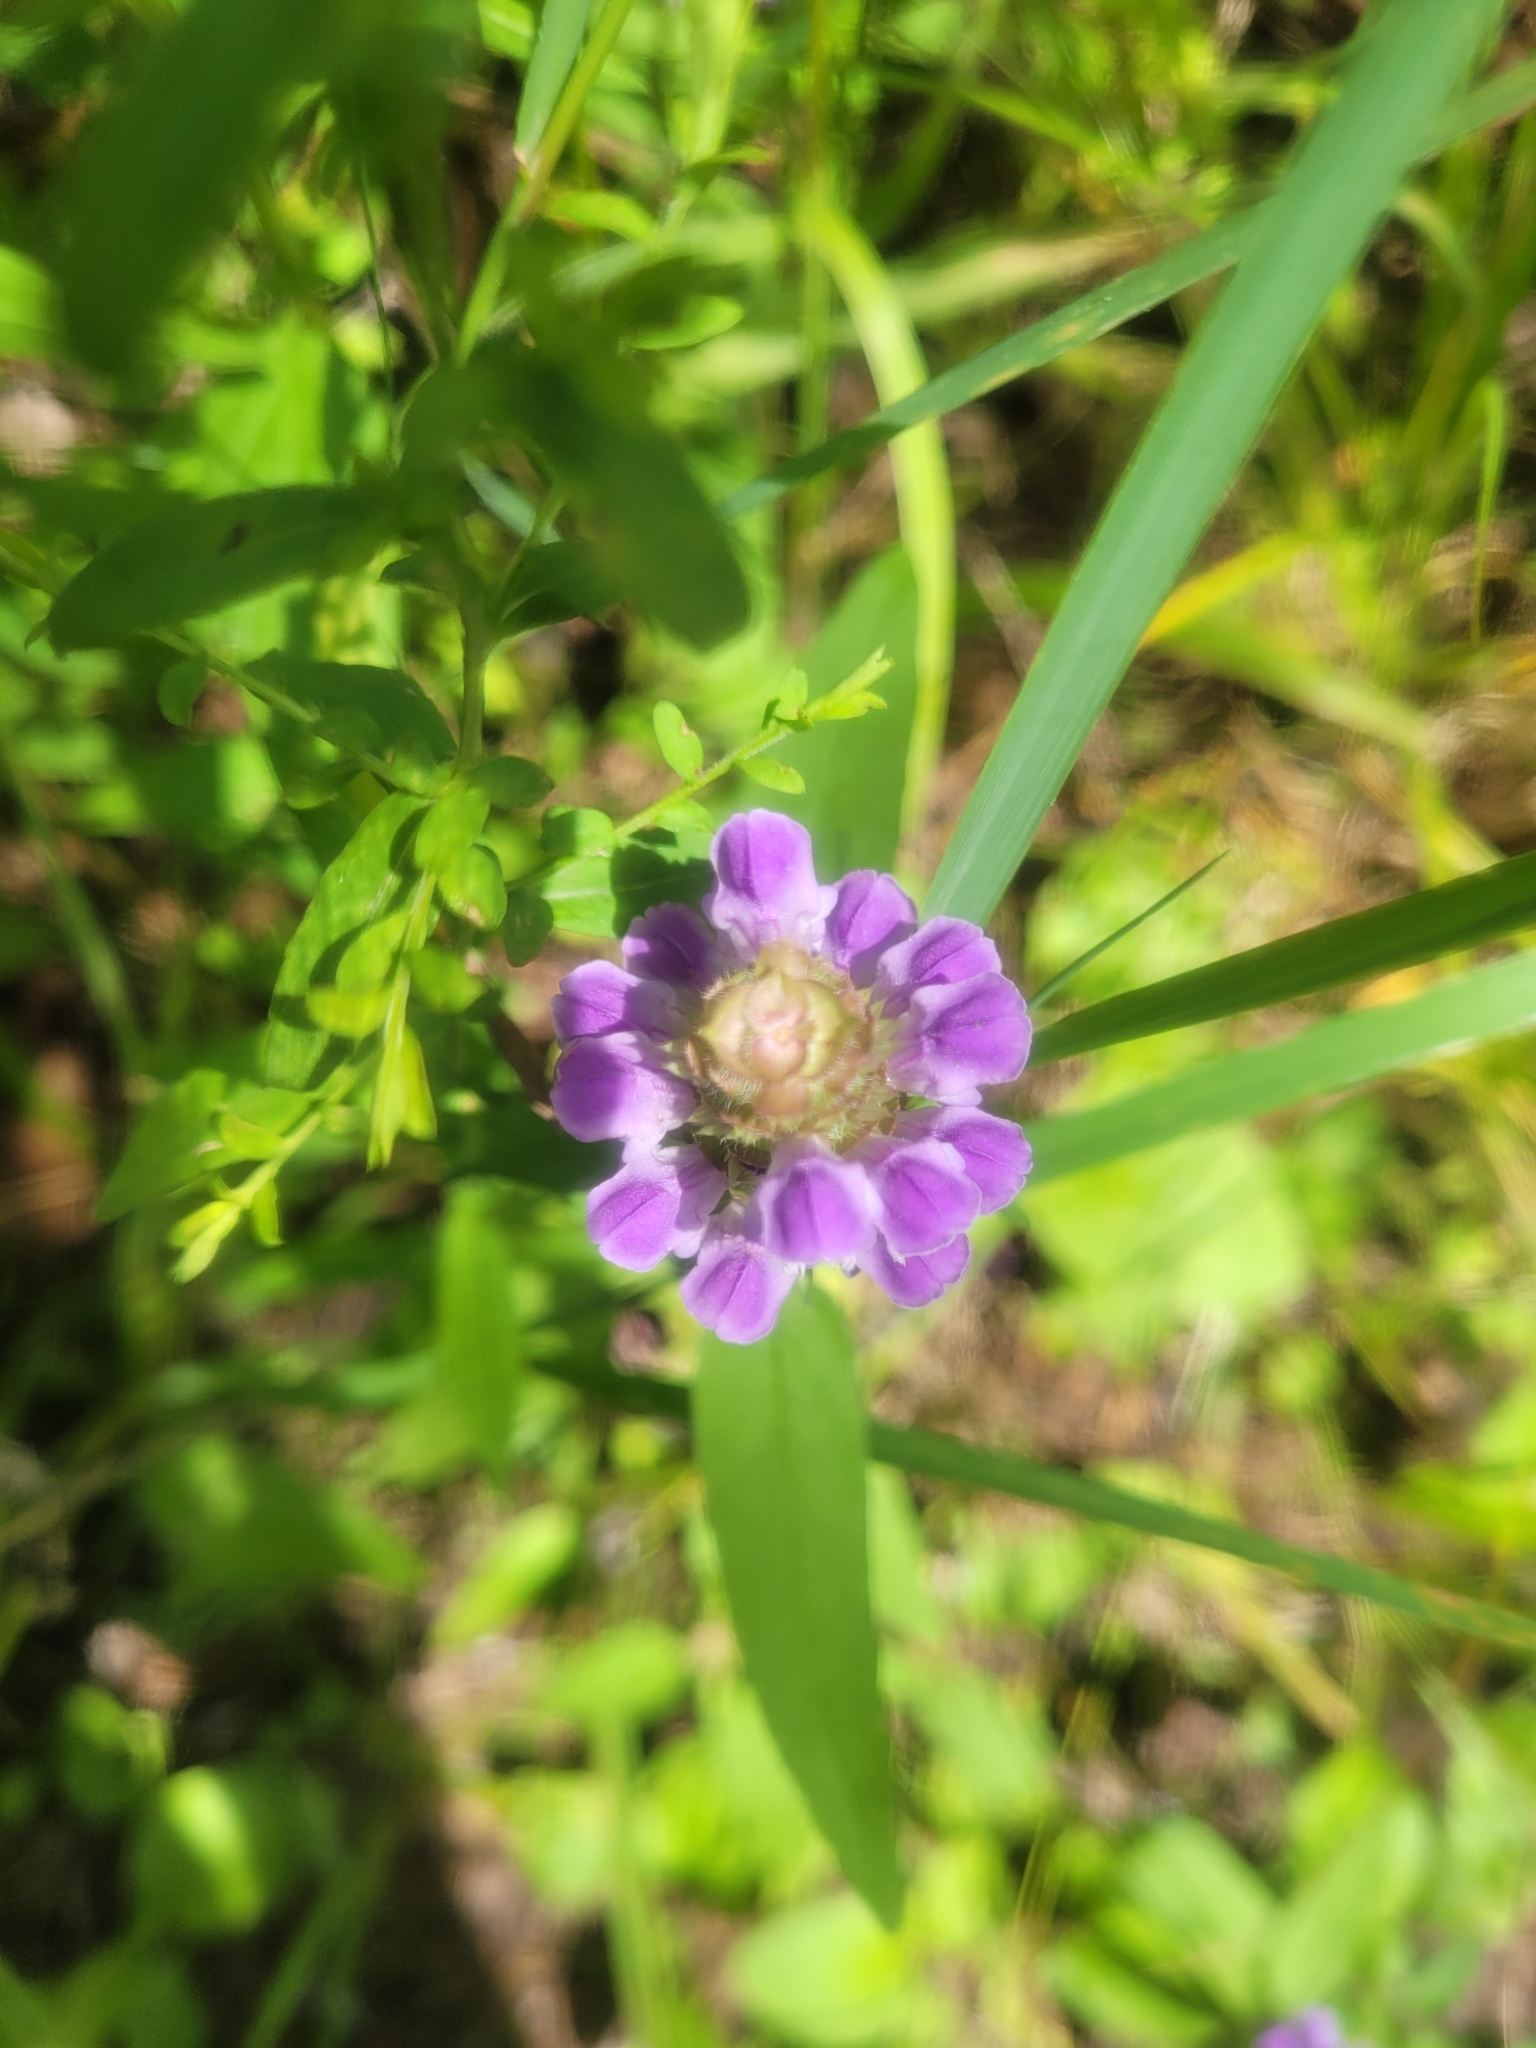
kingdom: Plantae
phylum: Tracheophyta
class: Magnoliopsida
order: Lamiales
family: Lamiaceae
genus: Prunella
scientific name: Prunella vulgaris
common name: Heal-all
